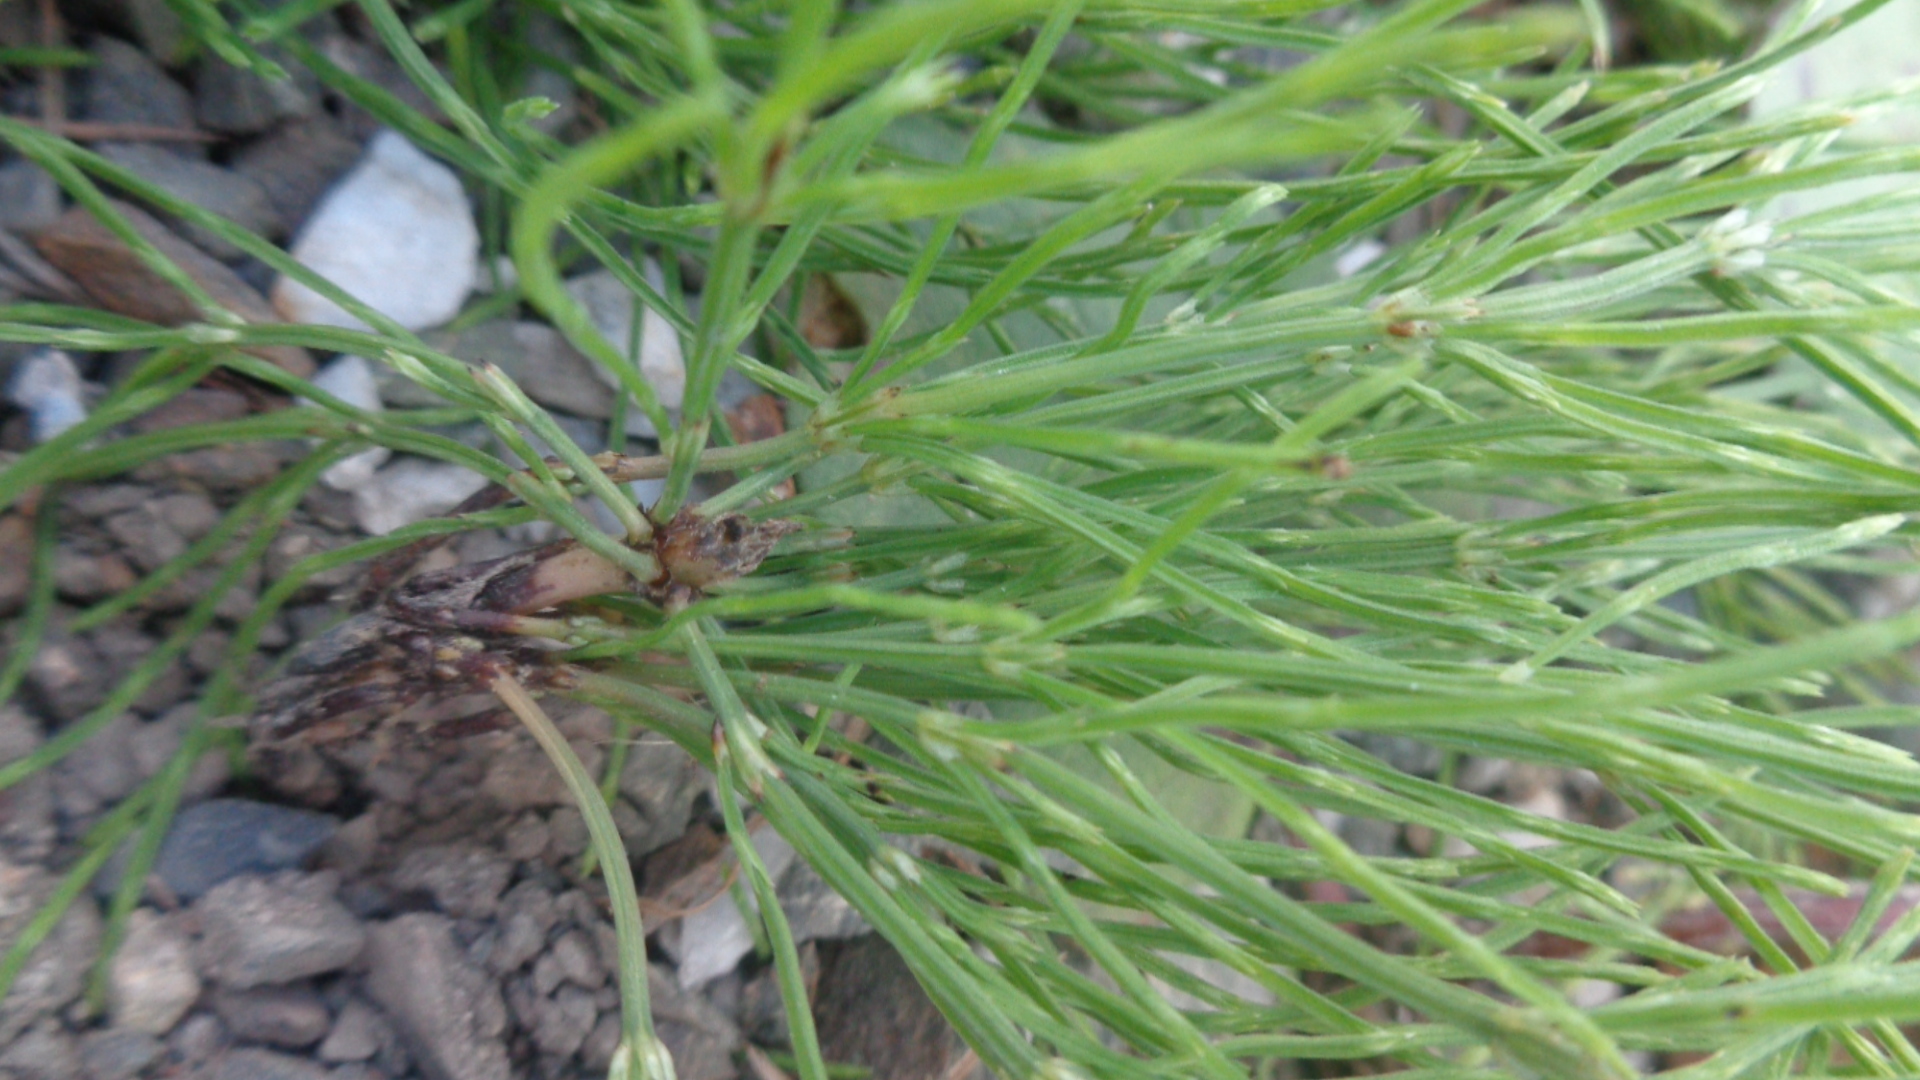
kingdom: Plantae
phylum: Tracheophyta
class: Polypodiopsida
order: Equisetales
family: Equisetaceae
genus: Equisetum
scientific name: Equisetum arvense
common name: Field horsetail
